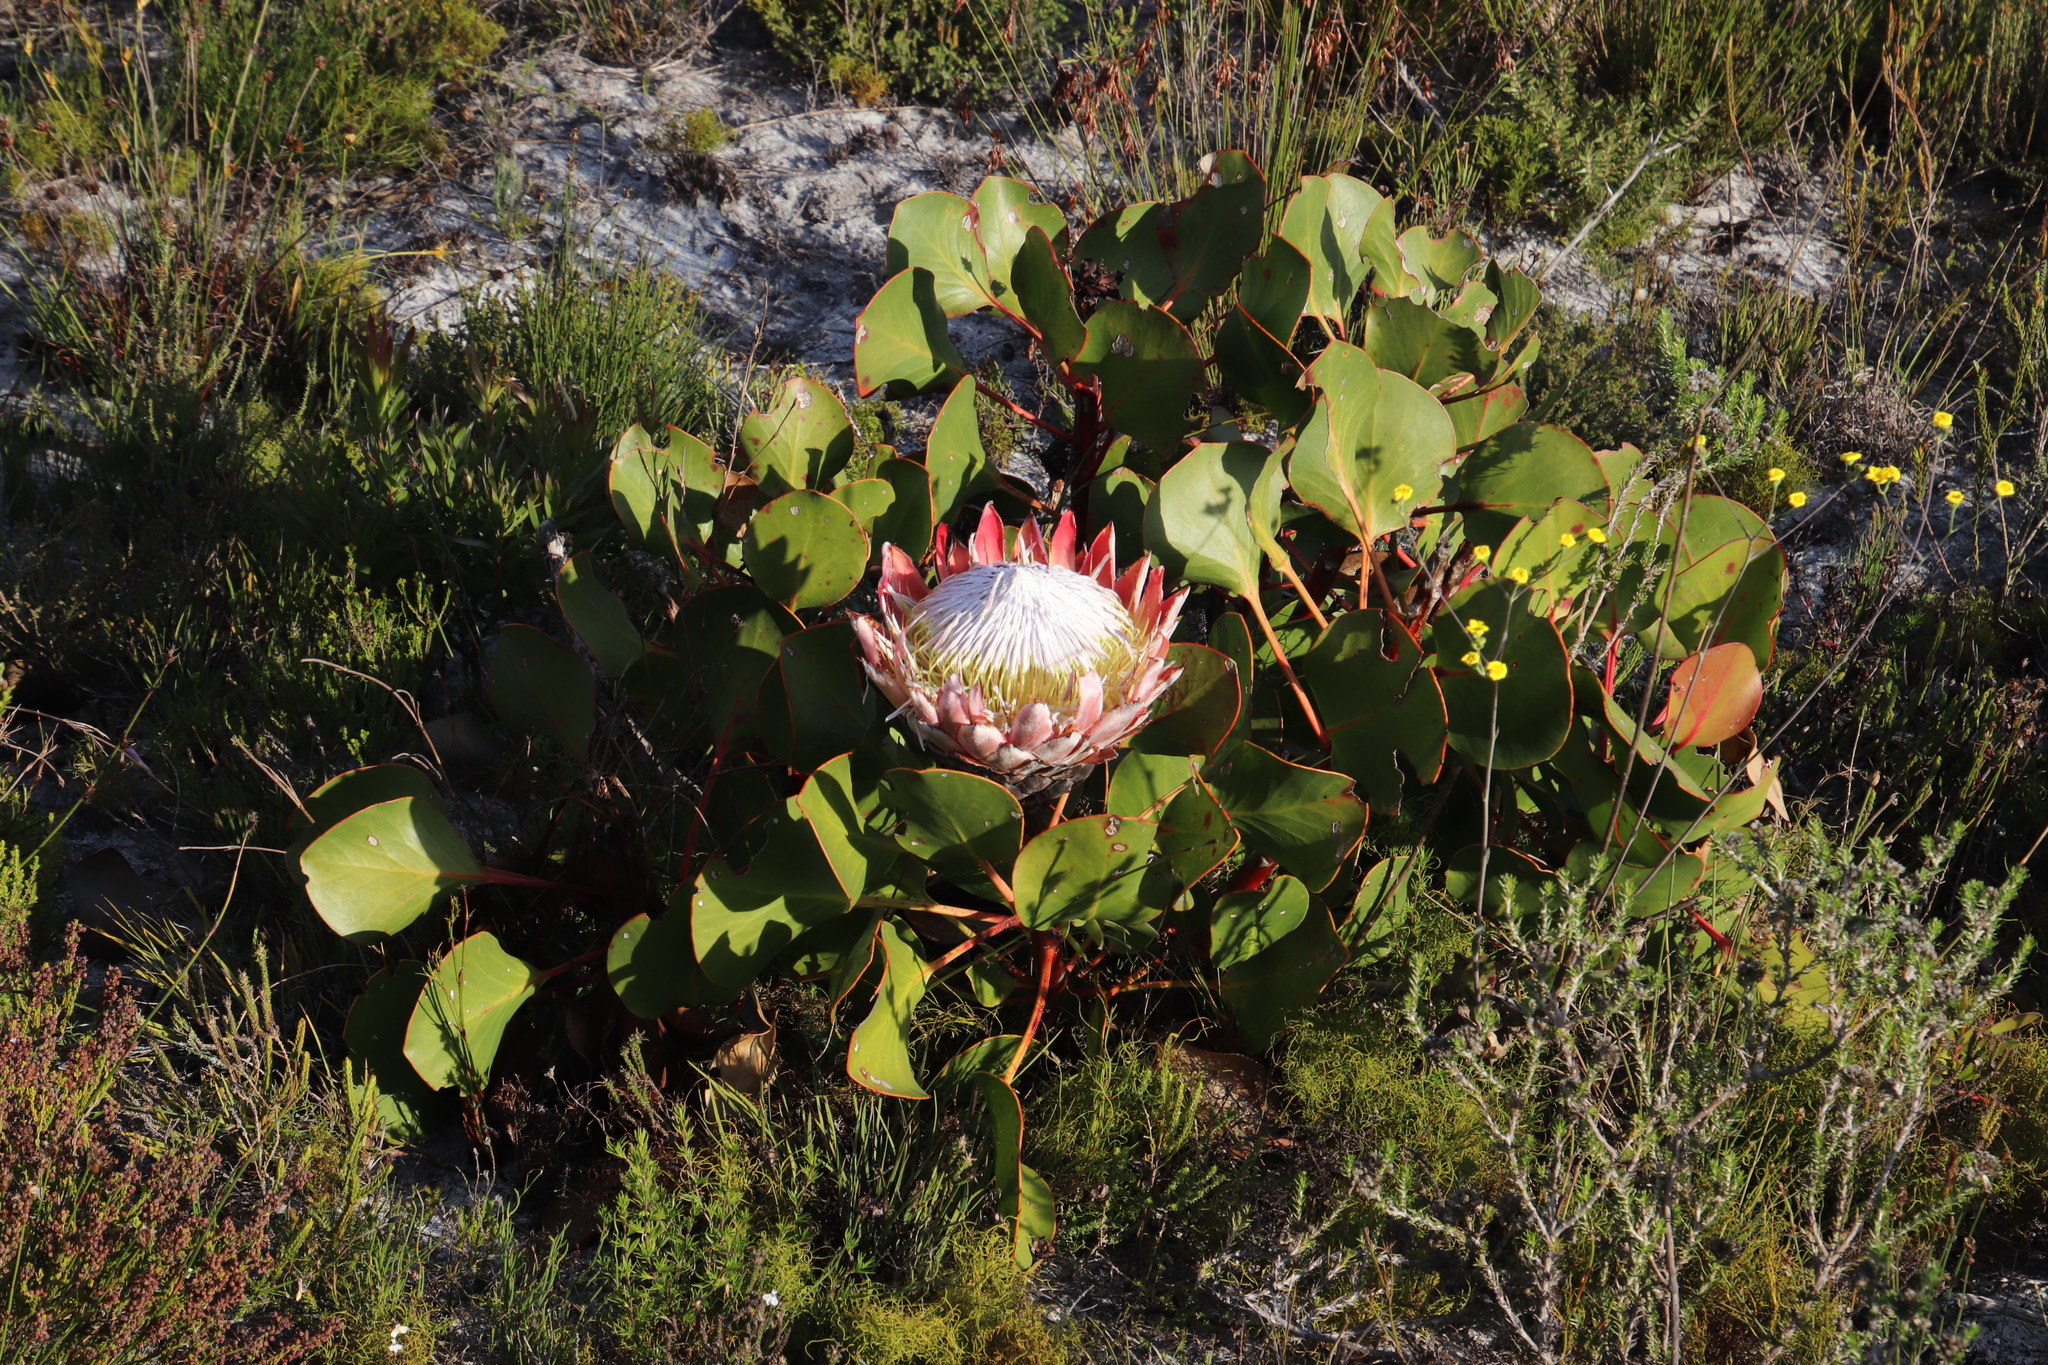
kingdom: Plantae
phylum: Tracheophyta
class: Magnoliopsida
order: Proteales
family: Proteaceae
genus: Protea
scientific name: Protea cynaroides
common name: King protea
